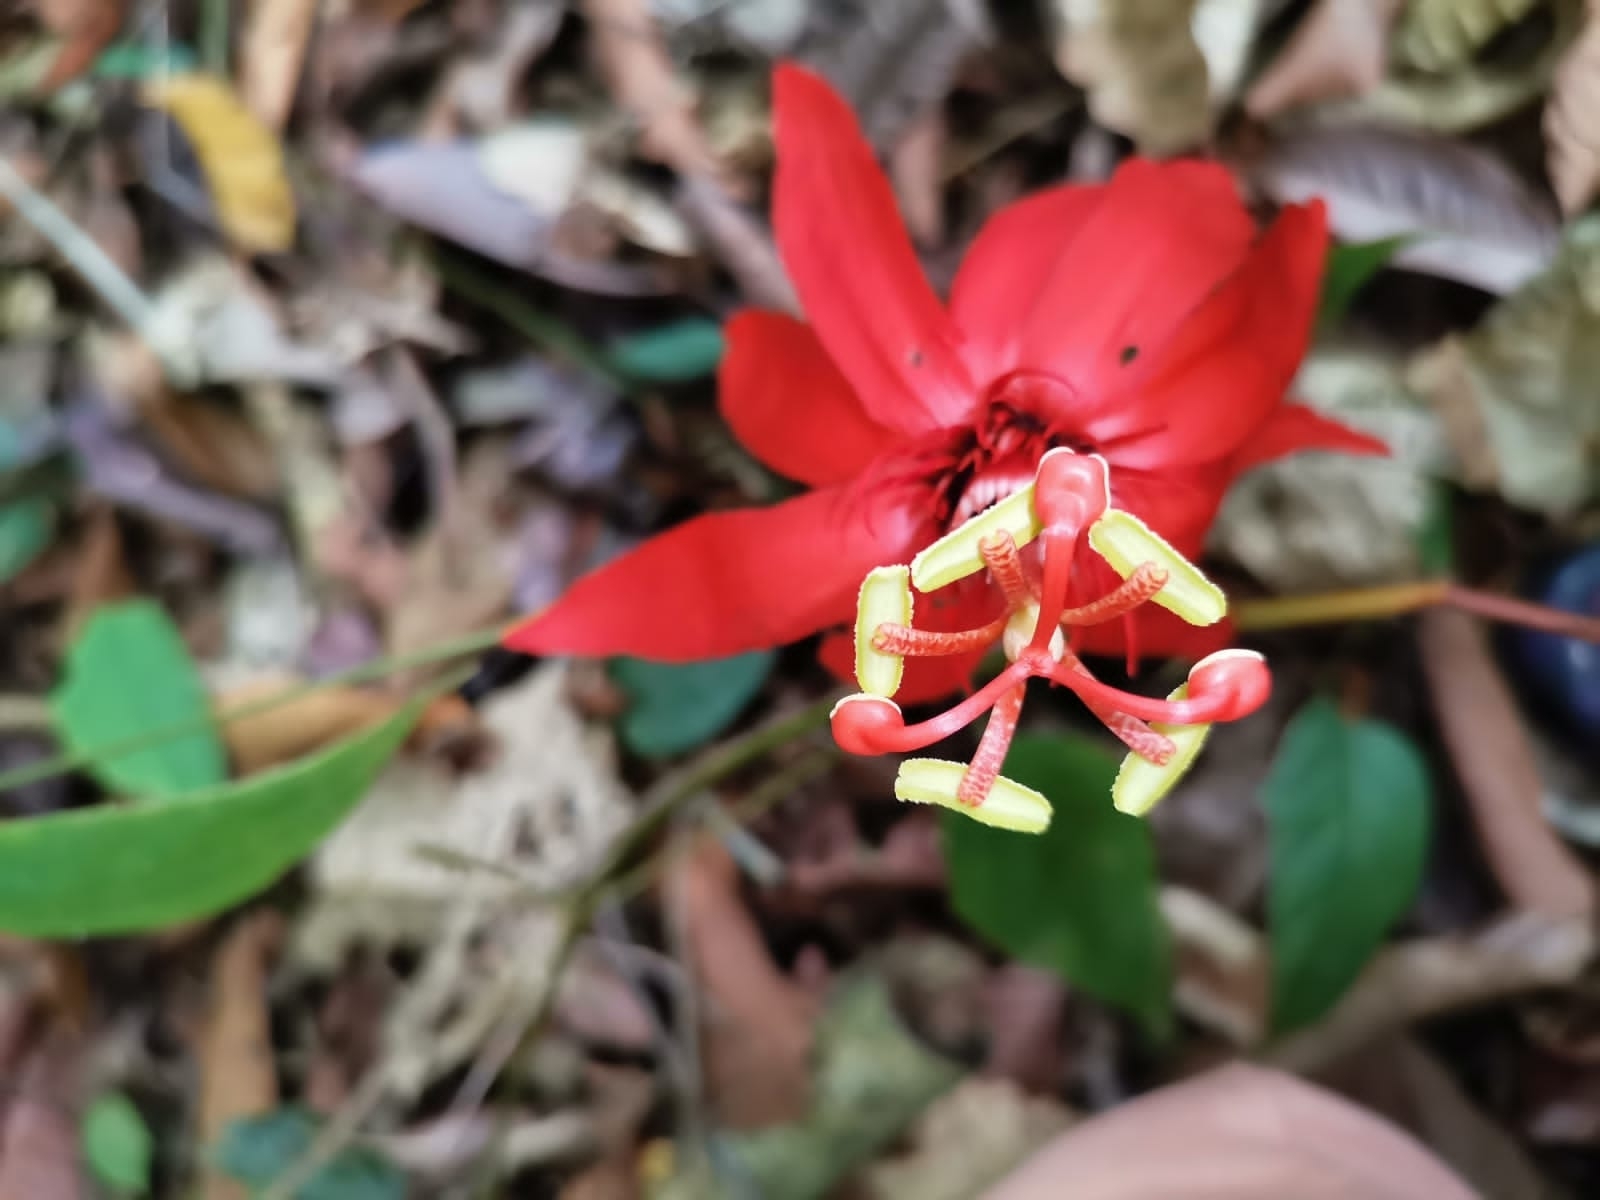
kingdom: Plantae
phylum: Tracheophyta
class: Magnoliopsida
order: Malpighiales
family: Passifloraceae
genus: Passiflora
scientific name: Passiflora vitifolia
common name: Perfumed passionflower
